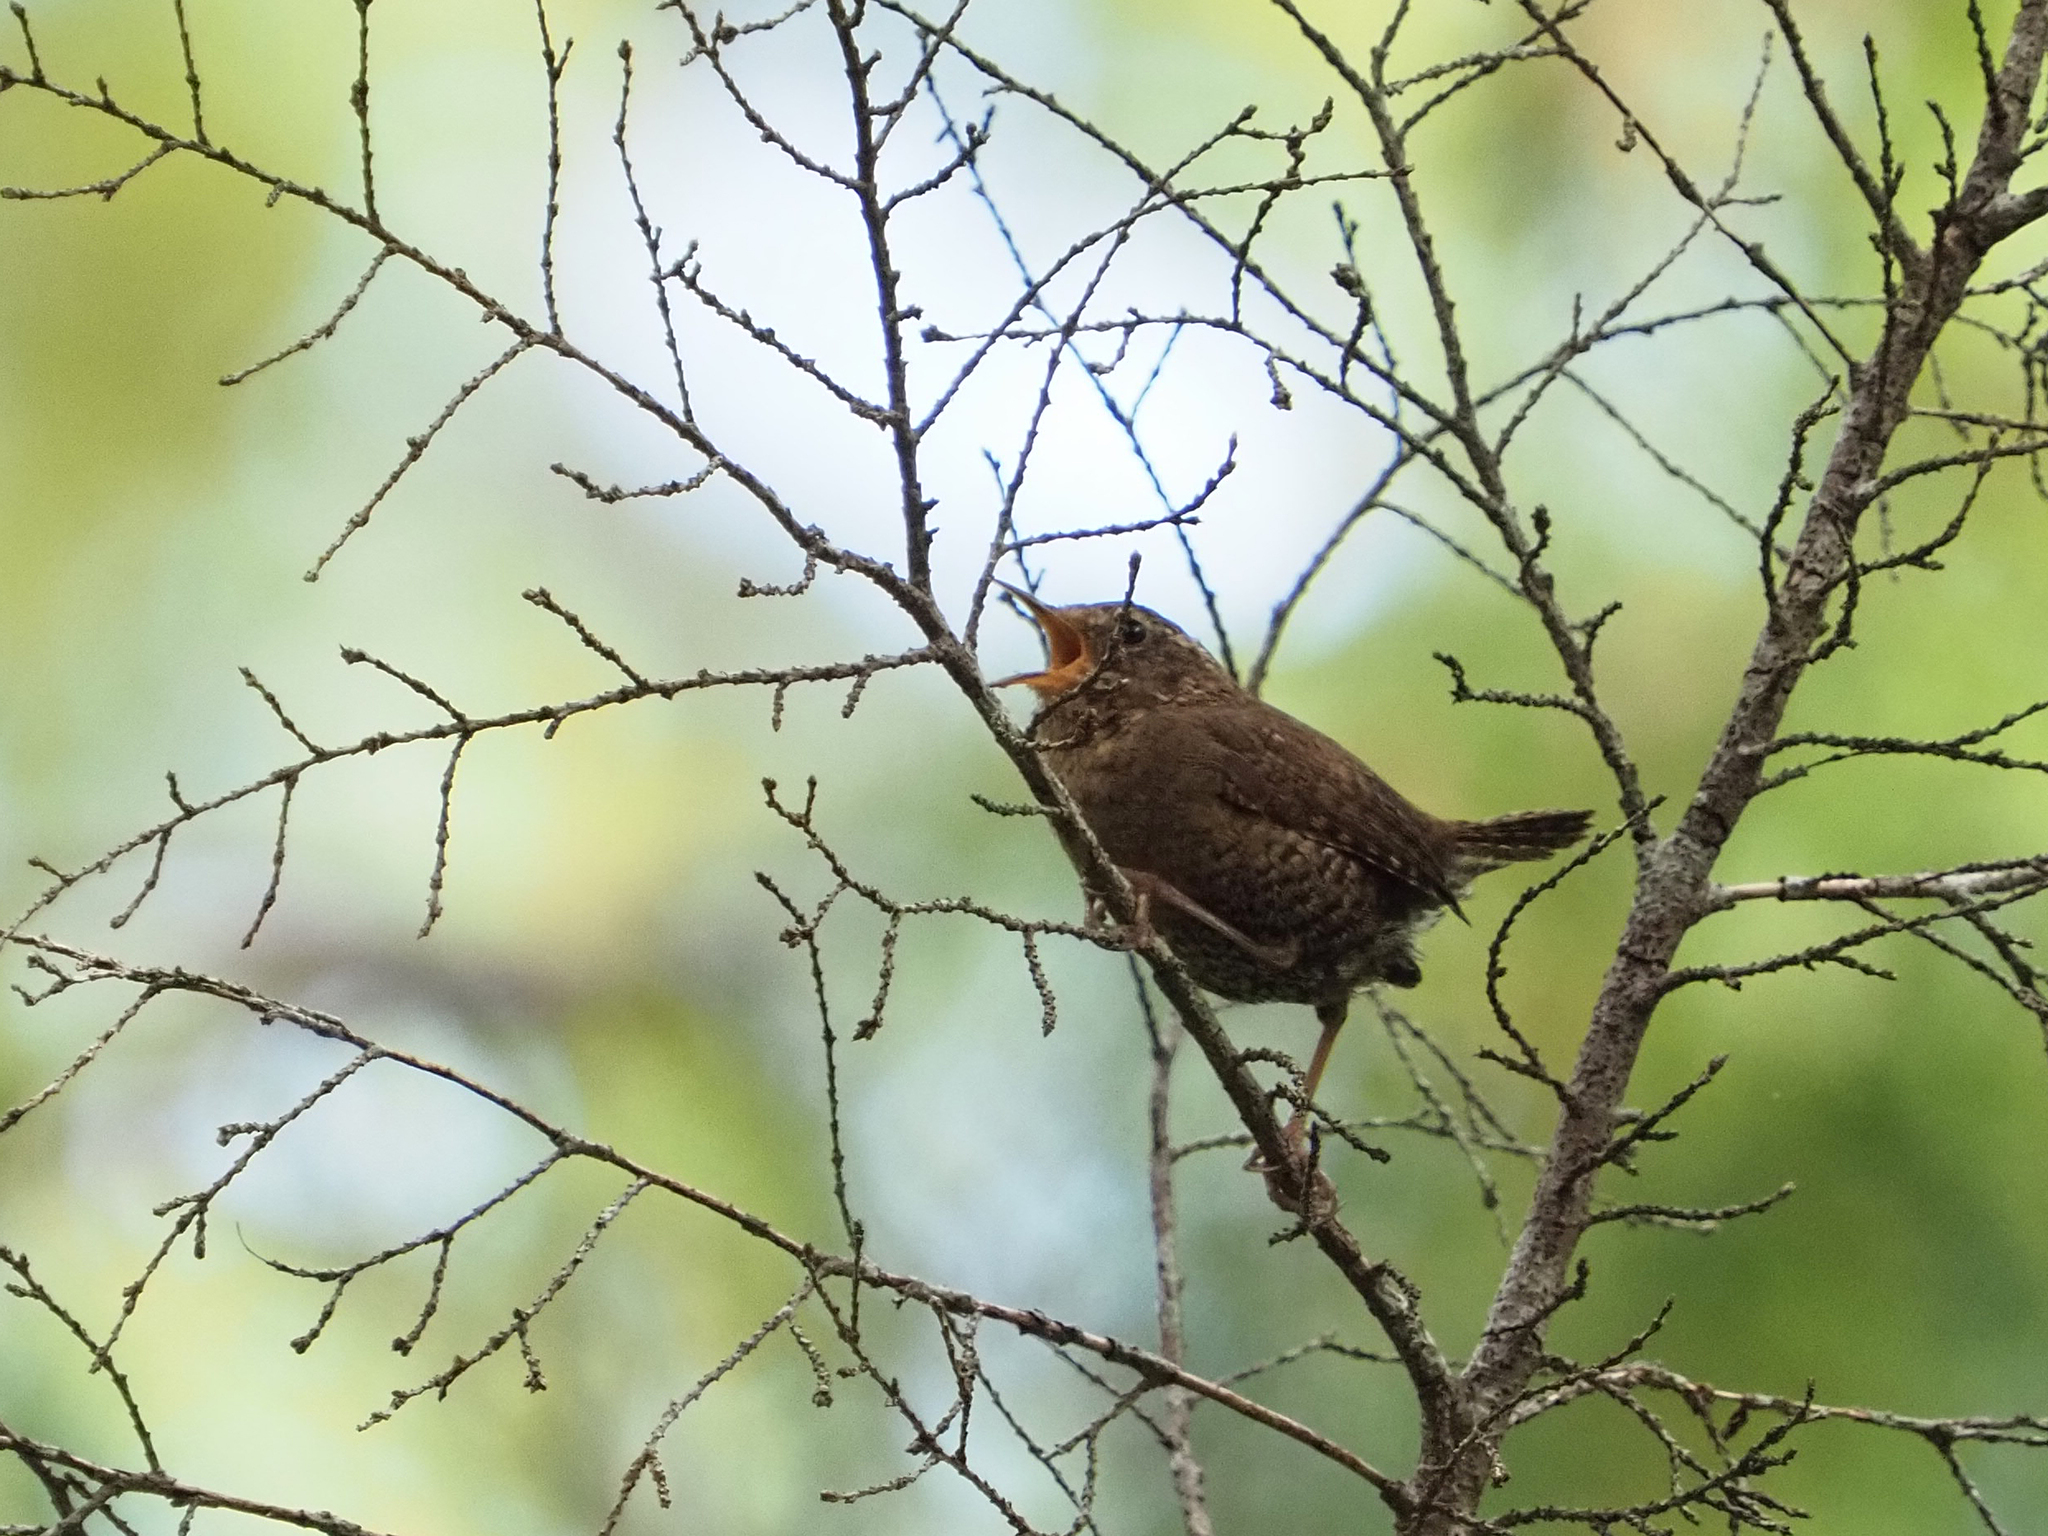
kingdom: Animalia
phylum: Chordata
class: Aves
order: Passeriformes
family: Troglodytidae
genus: Troglodytes
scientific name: Troglodytes pacificus
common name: Pacific wren
